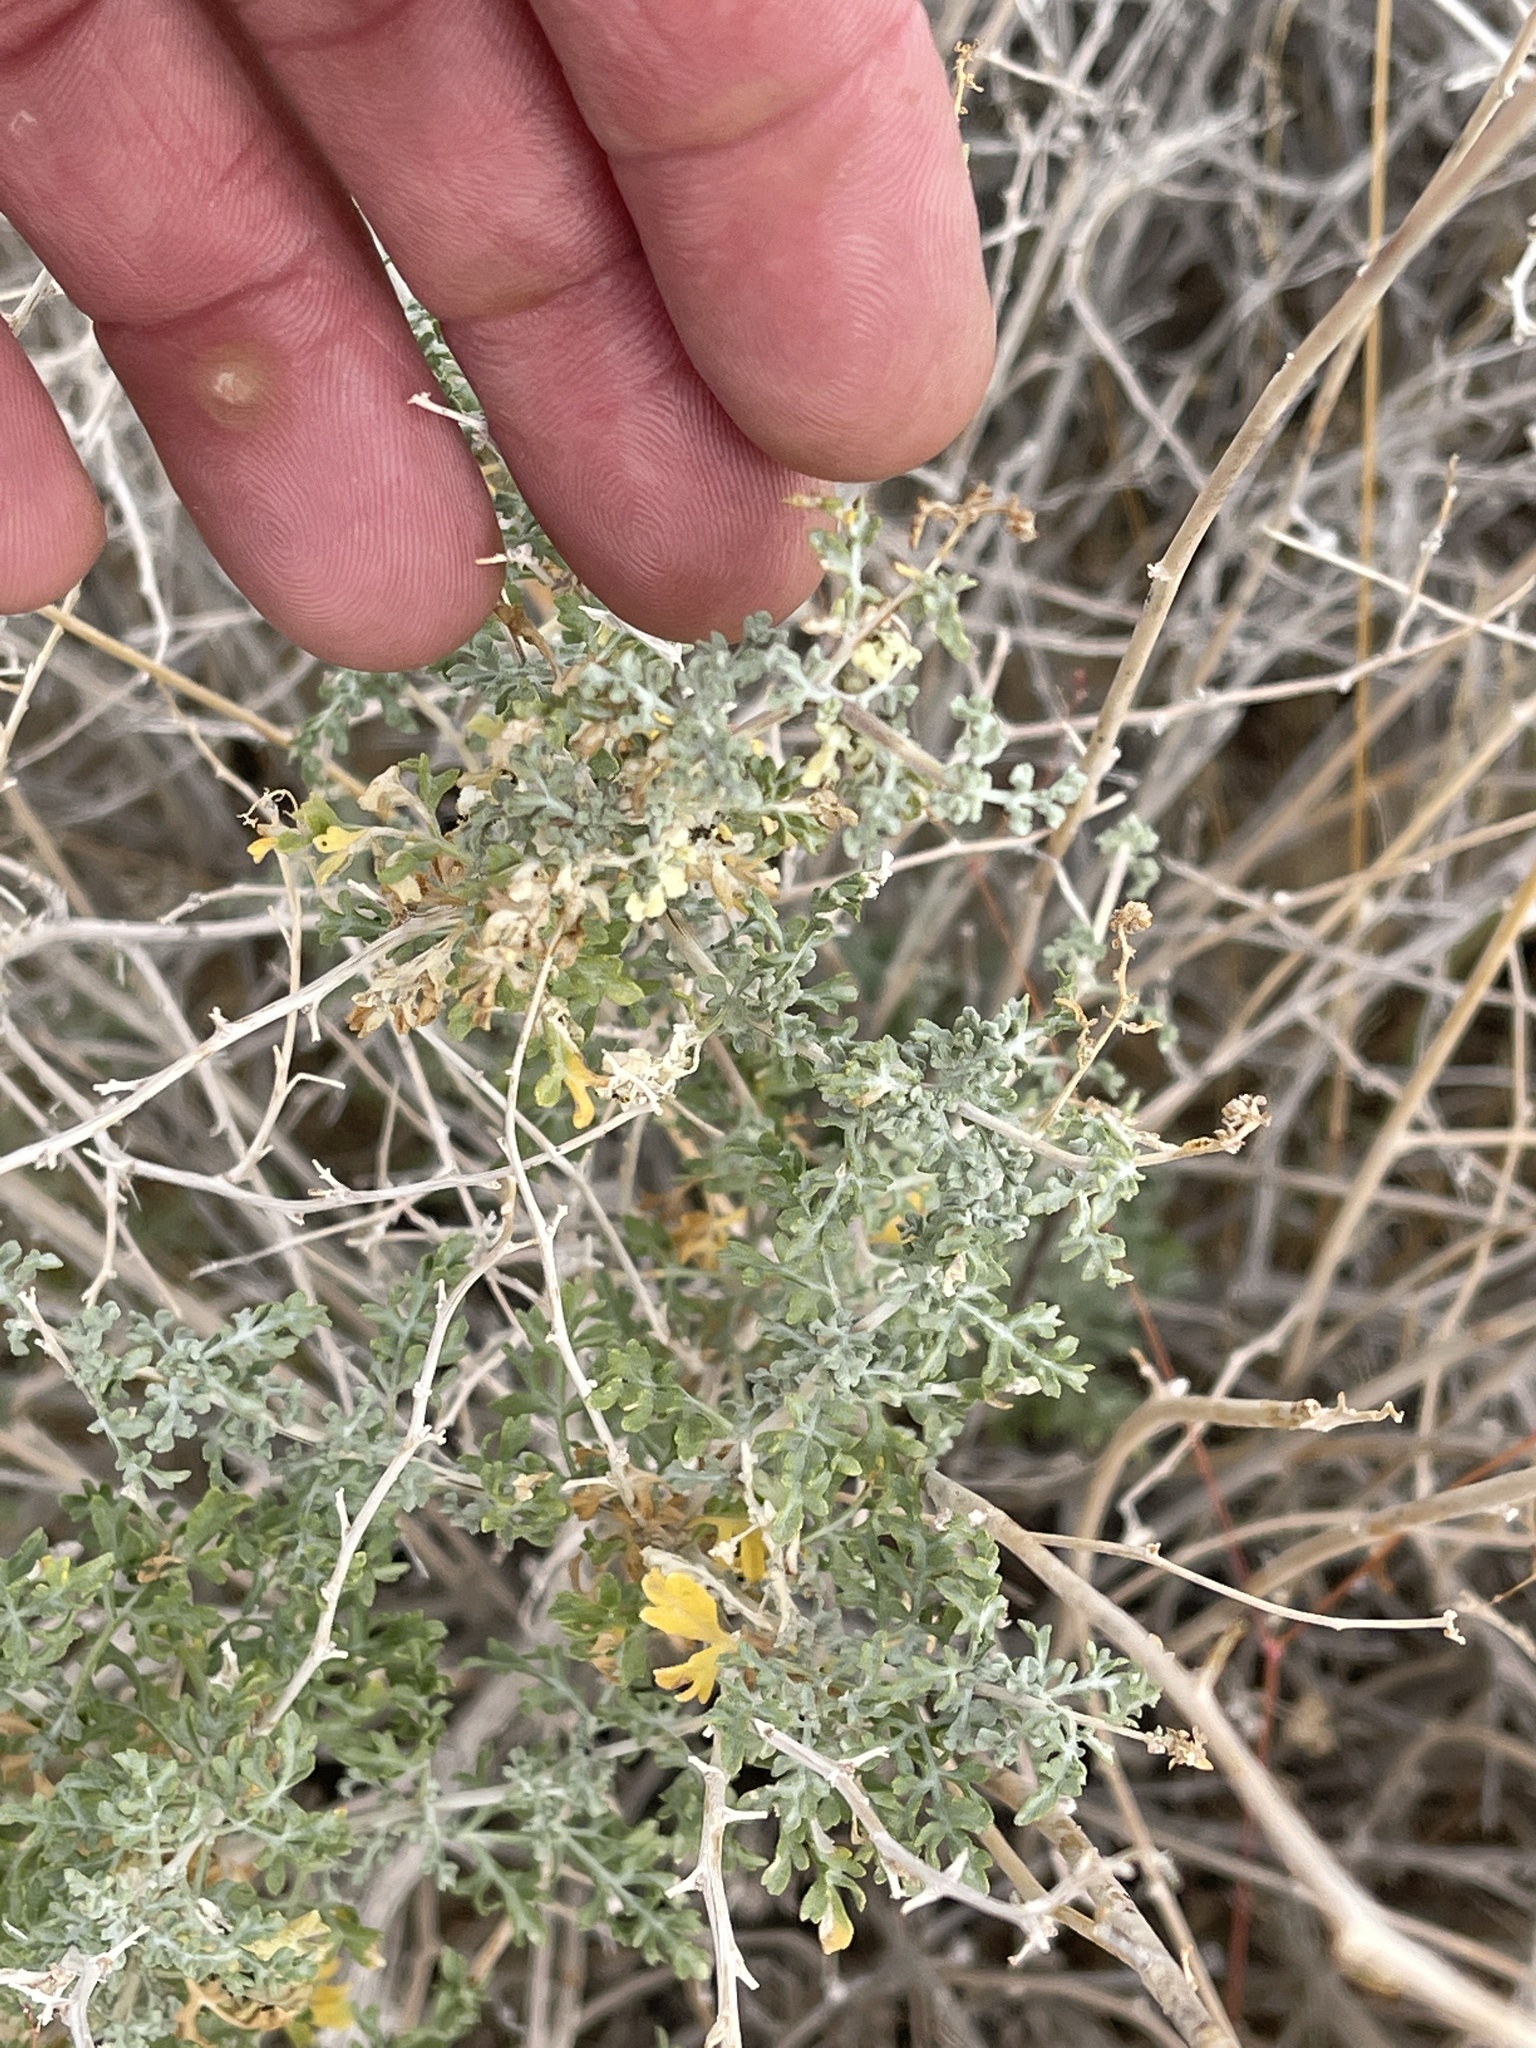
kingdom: Plantae
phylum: Tracheophyta
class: Magnoliopsida
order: Asterales
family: Asteraceae
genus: Ambrosia
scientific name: Ambrosia dumosa
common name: Bur-sage
